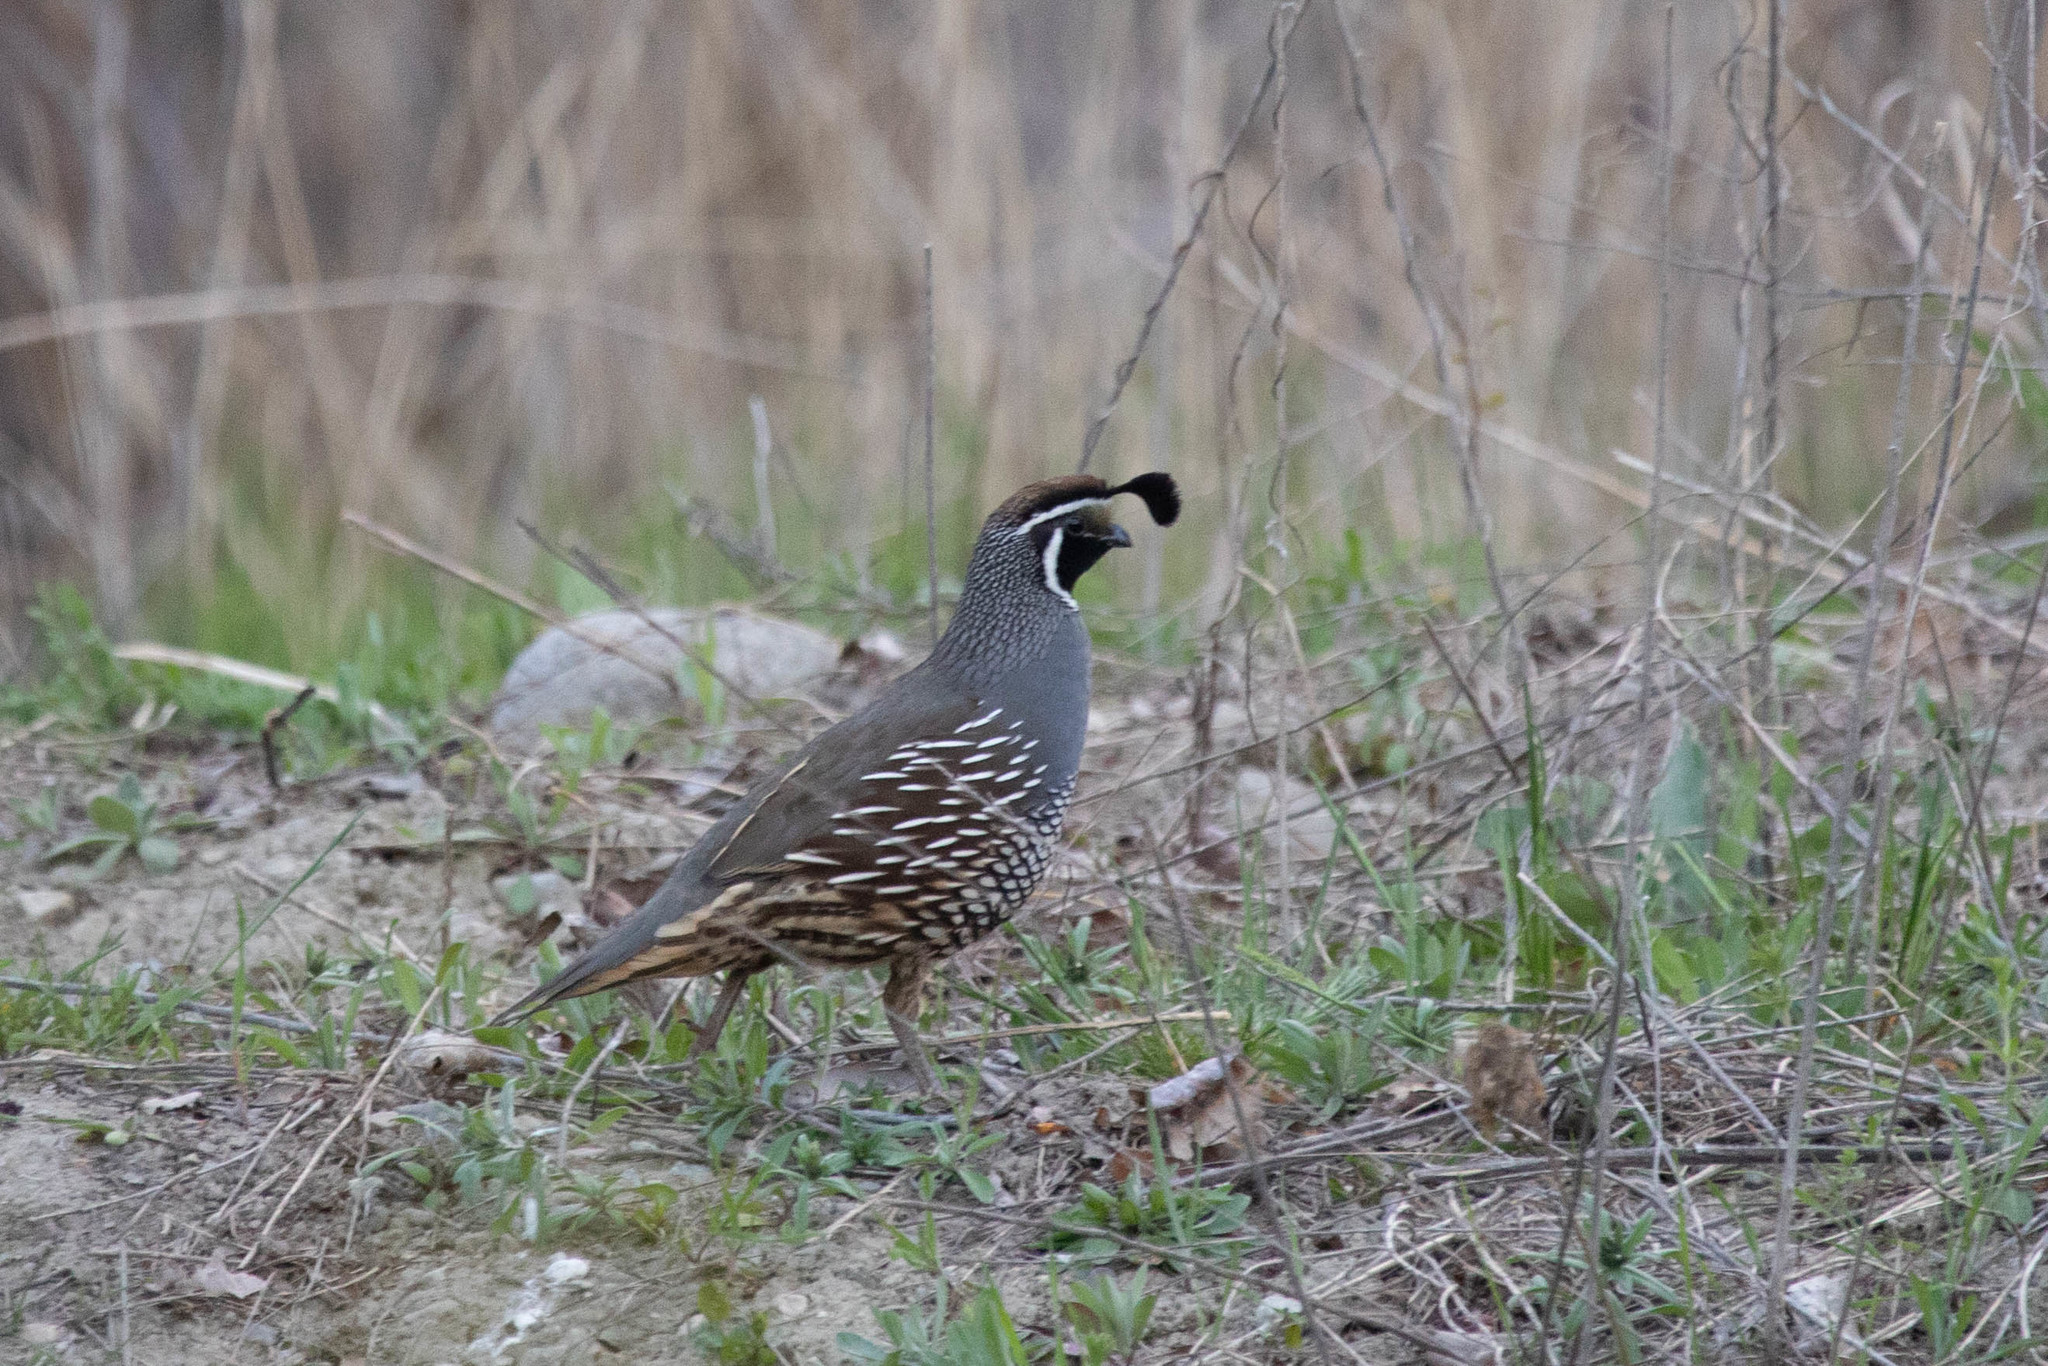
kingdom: Animalia
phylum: Chordata
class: Aves
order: Galliformes
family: Odontophoridae
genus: Callipepla
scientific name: Callipepla californica
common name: California quail
